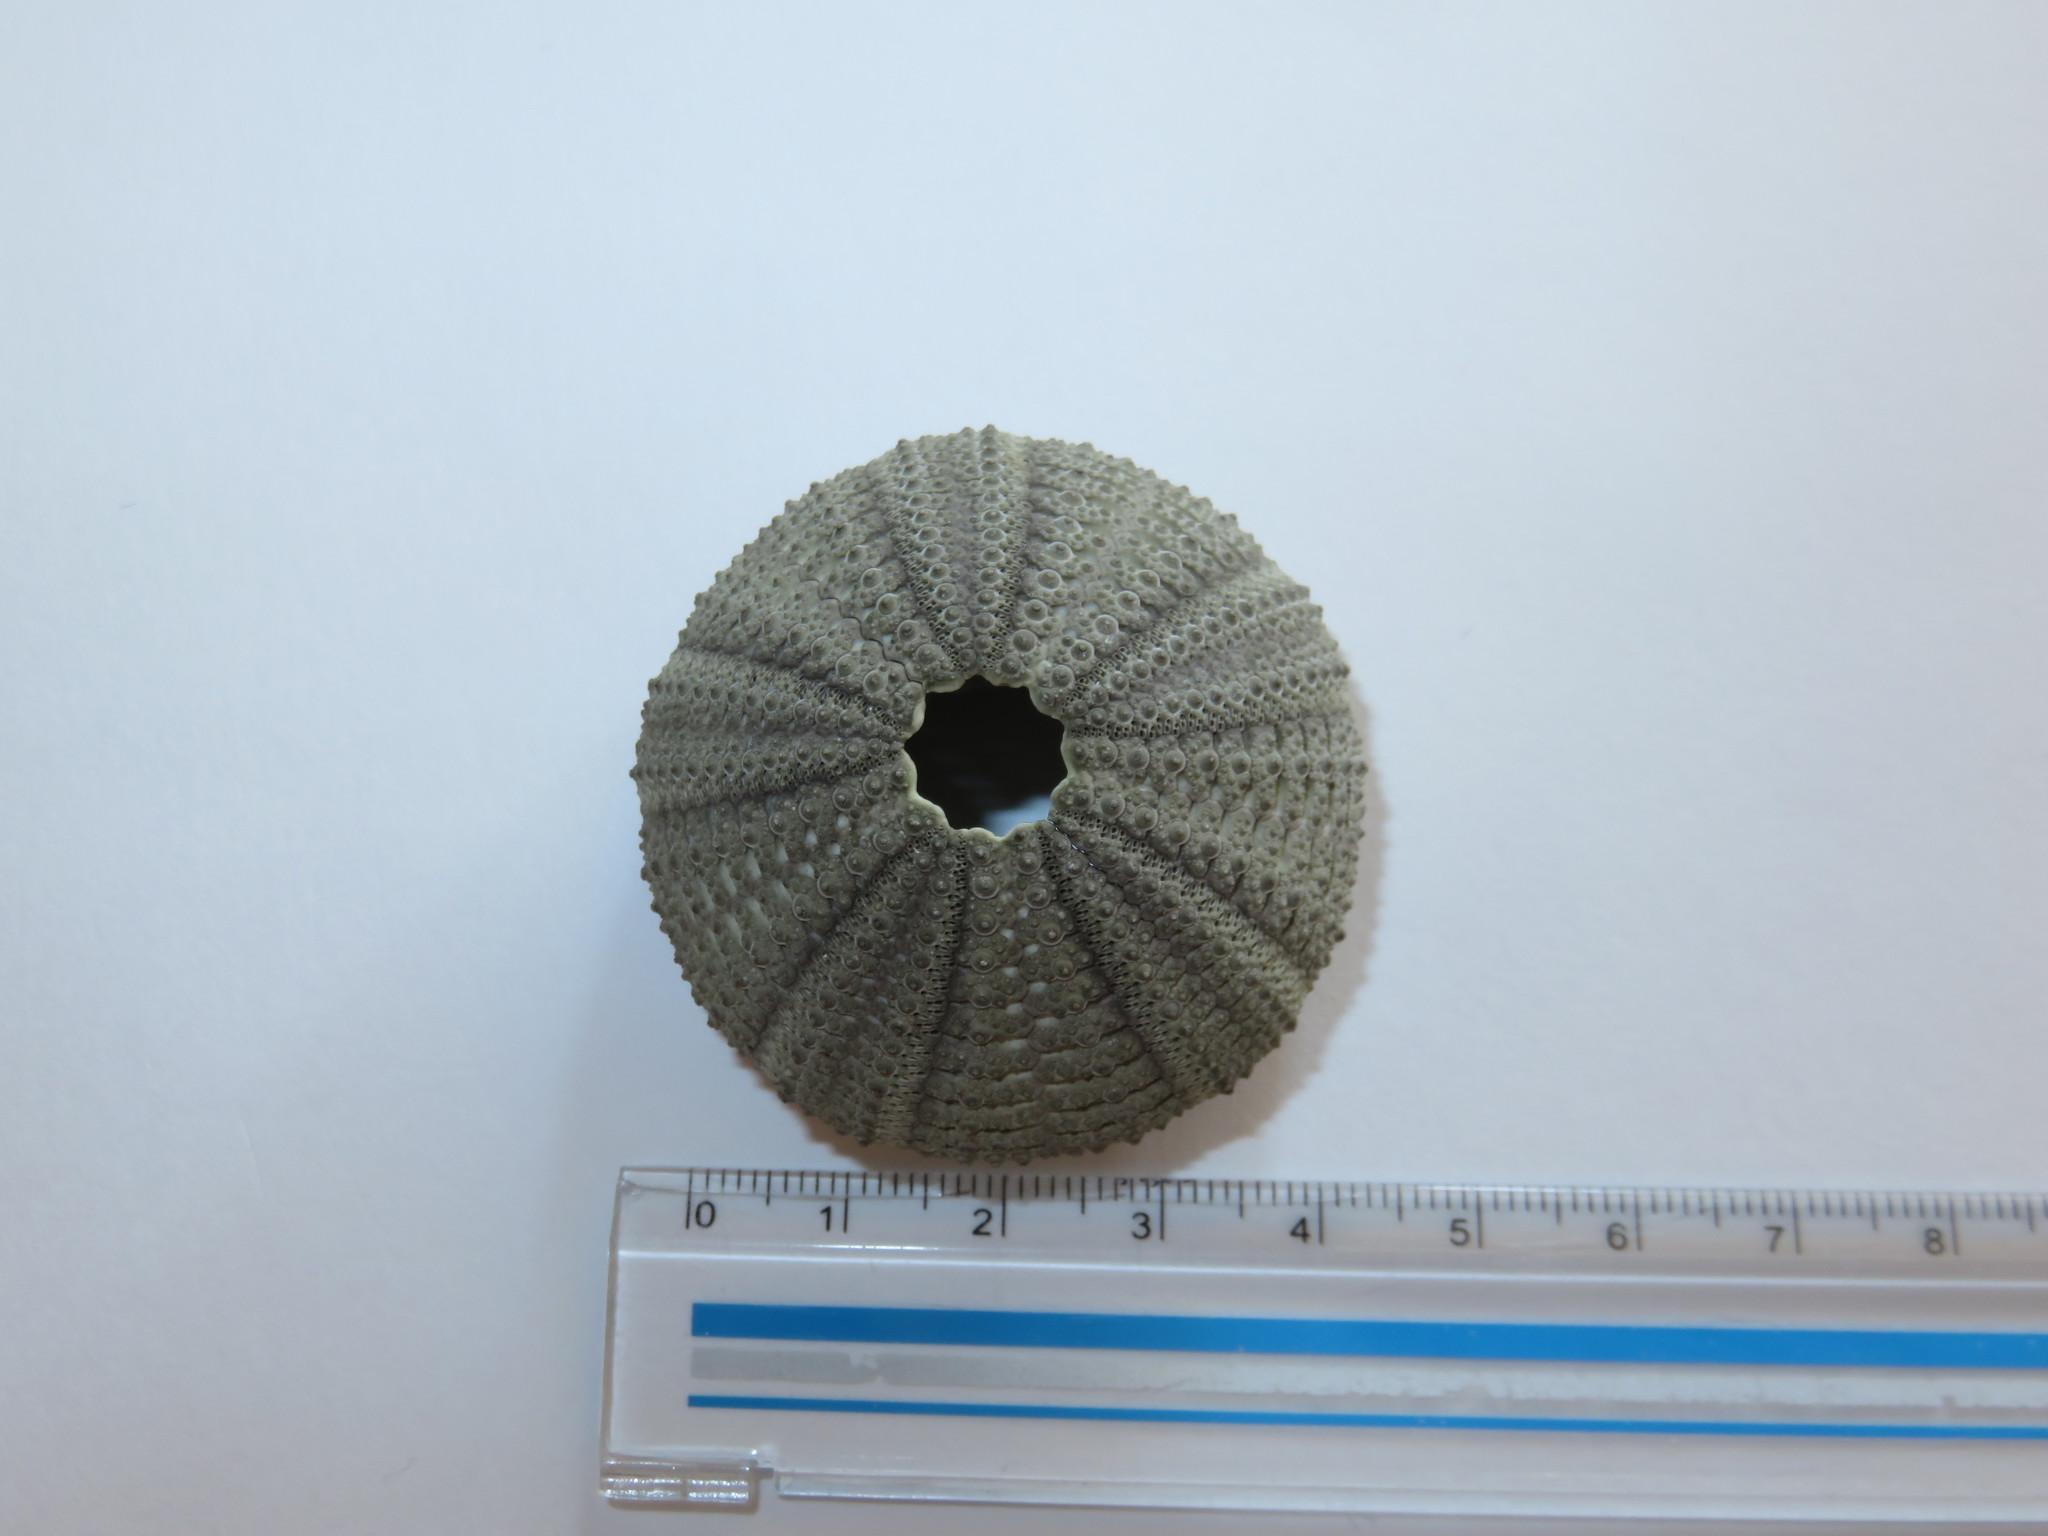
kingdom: Animalia
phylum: Echinodermata
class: Echinoidea
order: Camarodonta
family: Temnopleuridae
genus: Temnopleurus
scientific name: Temnopleurus toreumaticus
